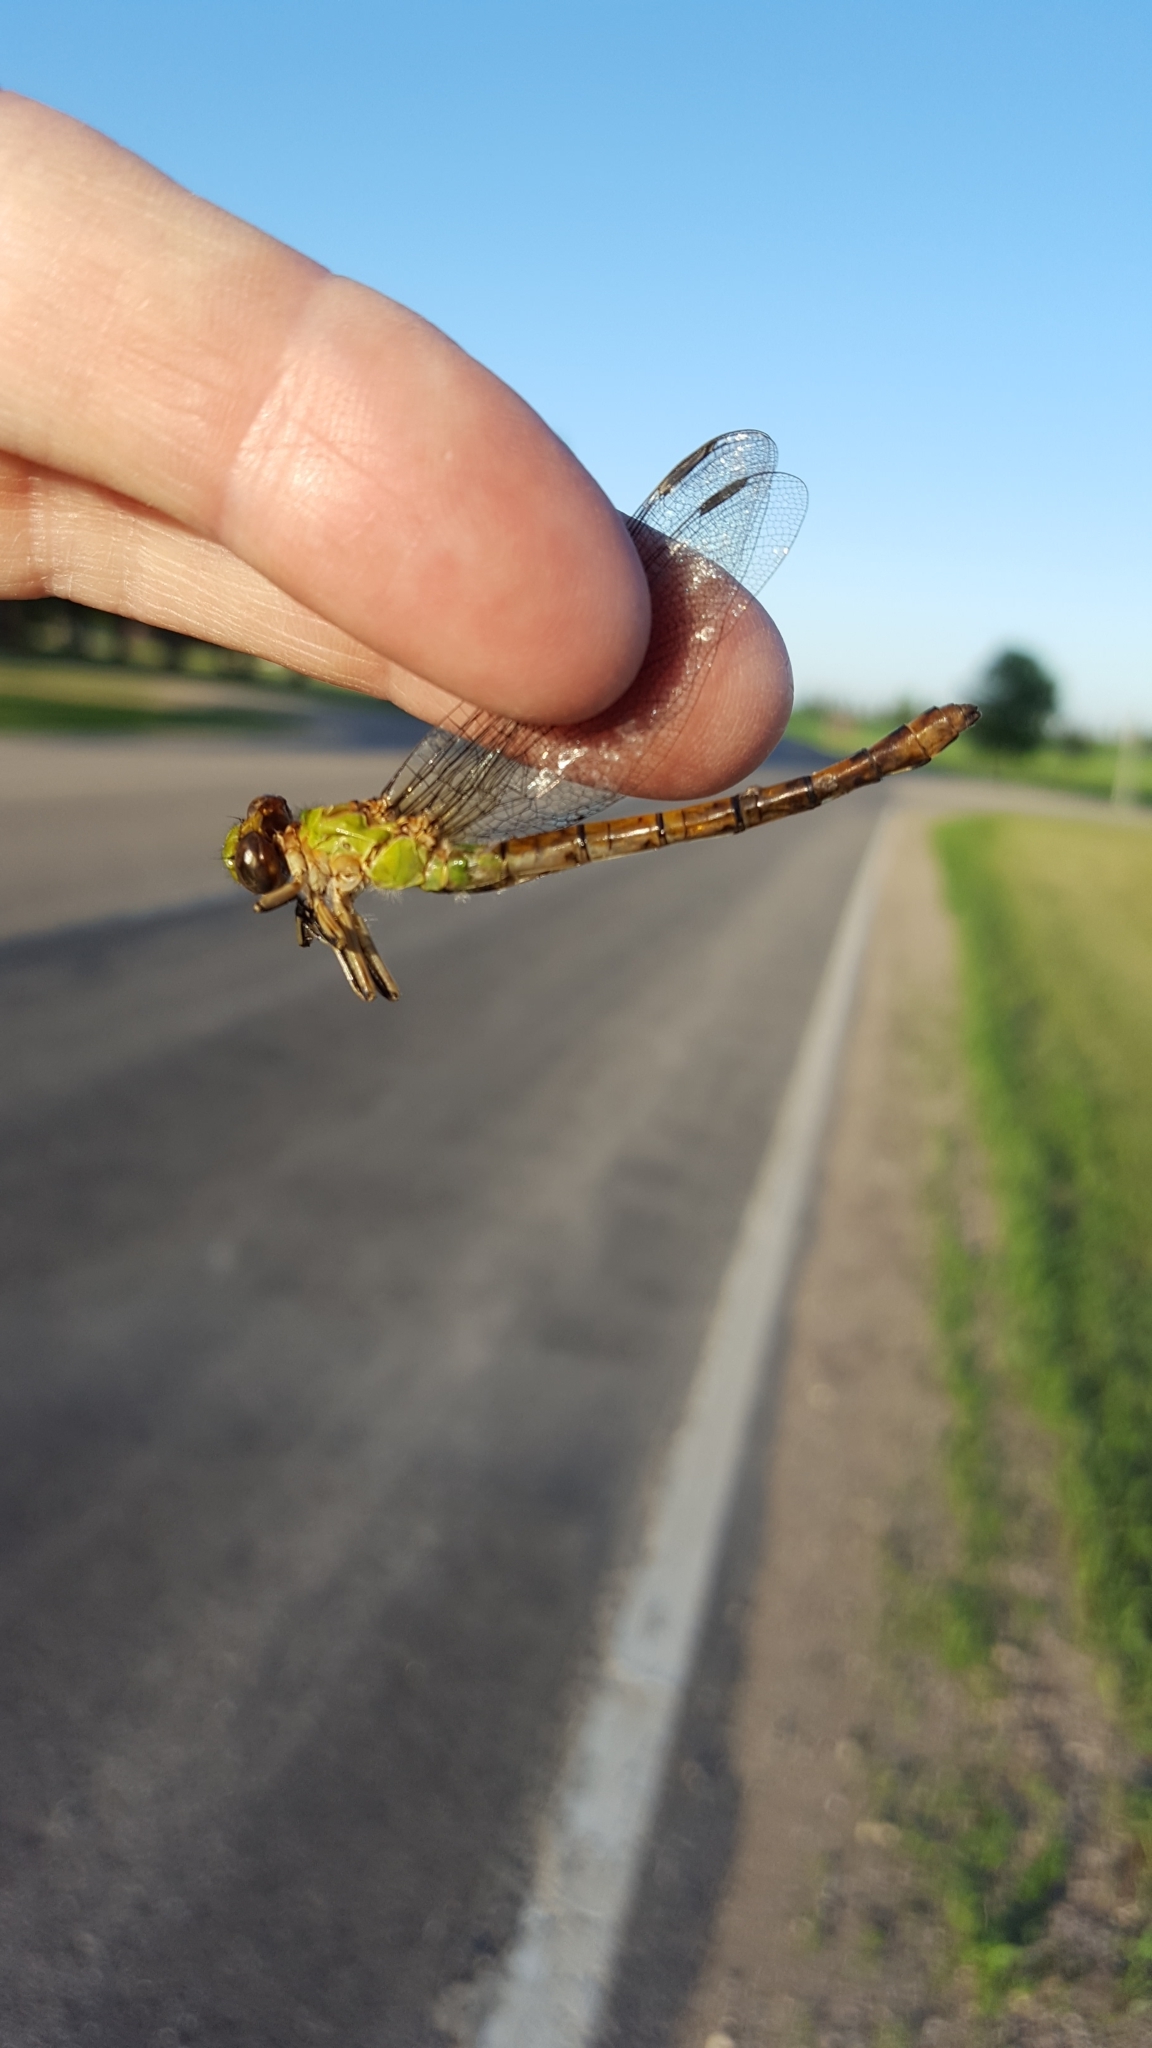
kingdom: Animalia
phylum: Arthropoda
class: Insecta
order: Odonata
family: Gomphidae
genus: Ophiogomphus
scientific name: Ophiogomphus rupinsulensis
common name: Rusty snaketail
